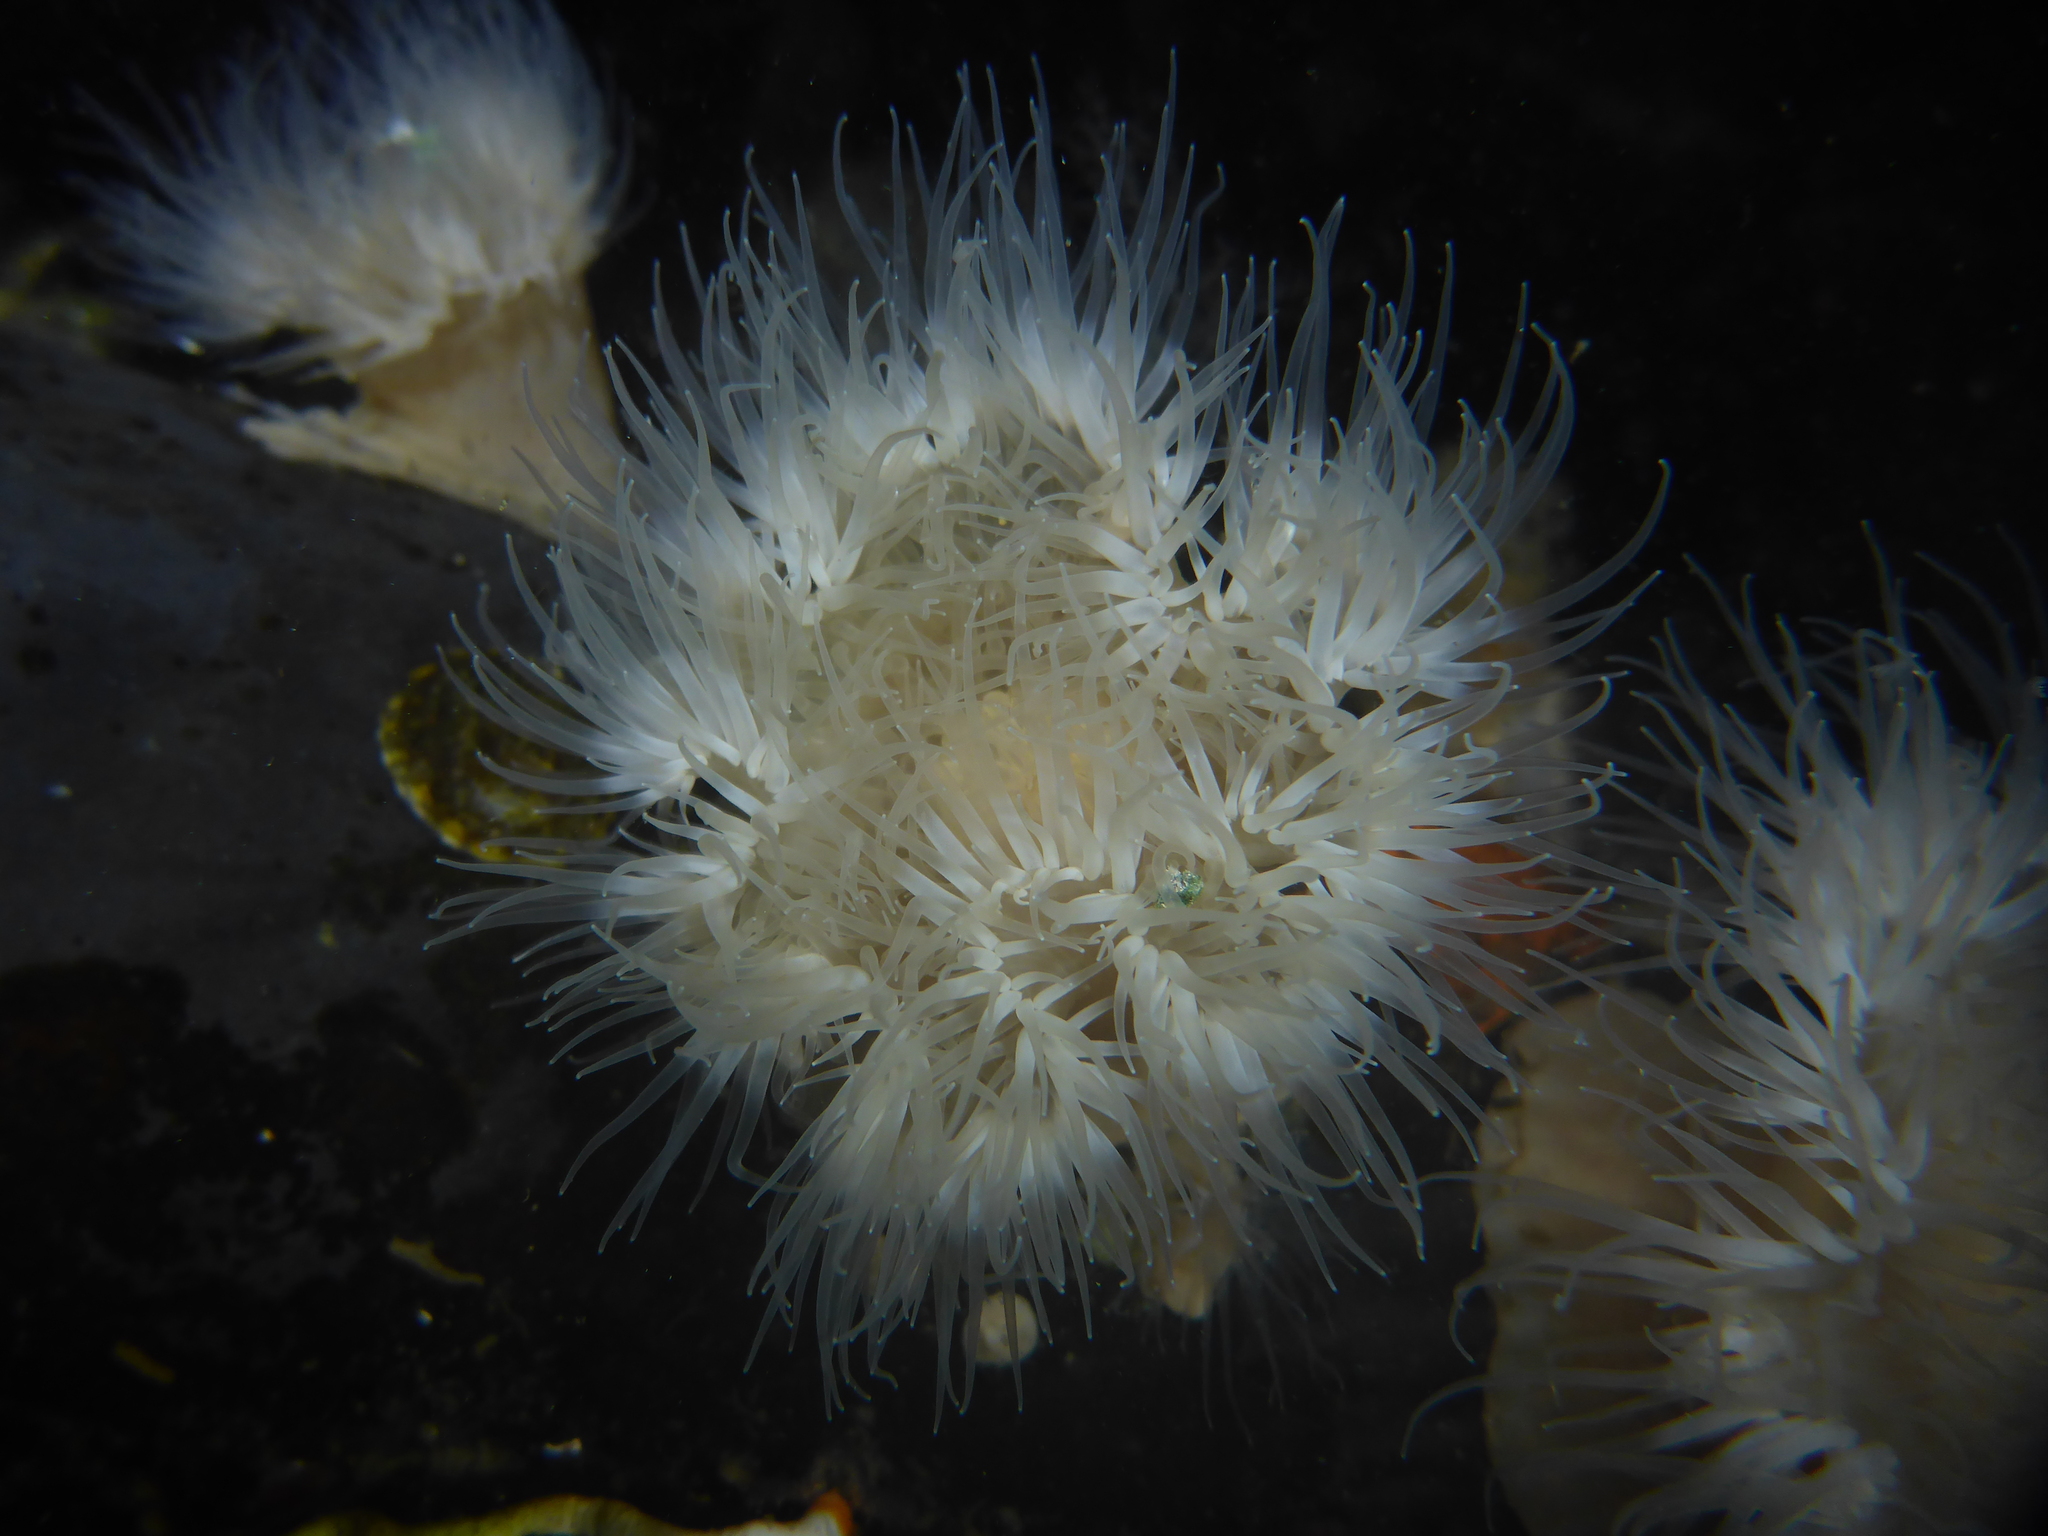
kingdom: Animalia
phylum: Cnidaria
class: Anthozoa
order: Actiniaria
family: Metridiidae
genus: Metridium
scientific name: Metridium senile
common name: Clonal plumose anemone
